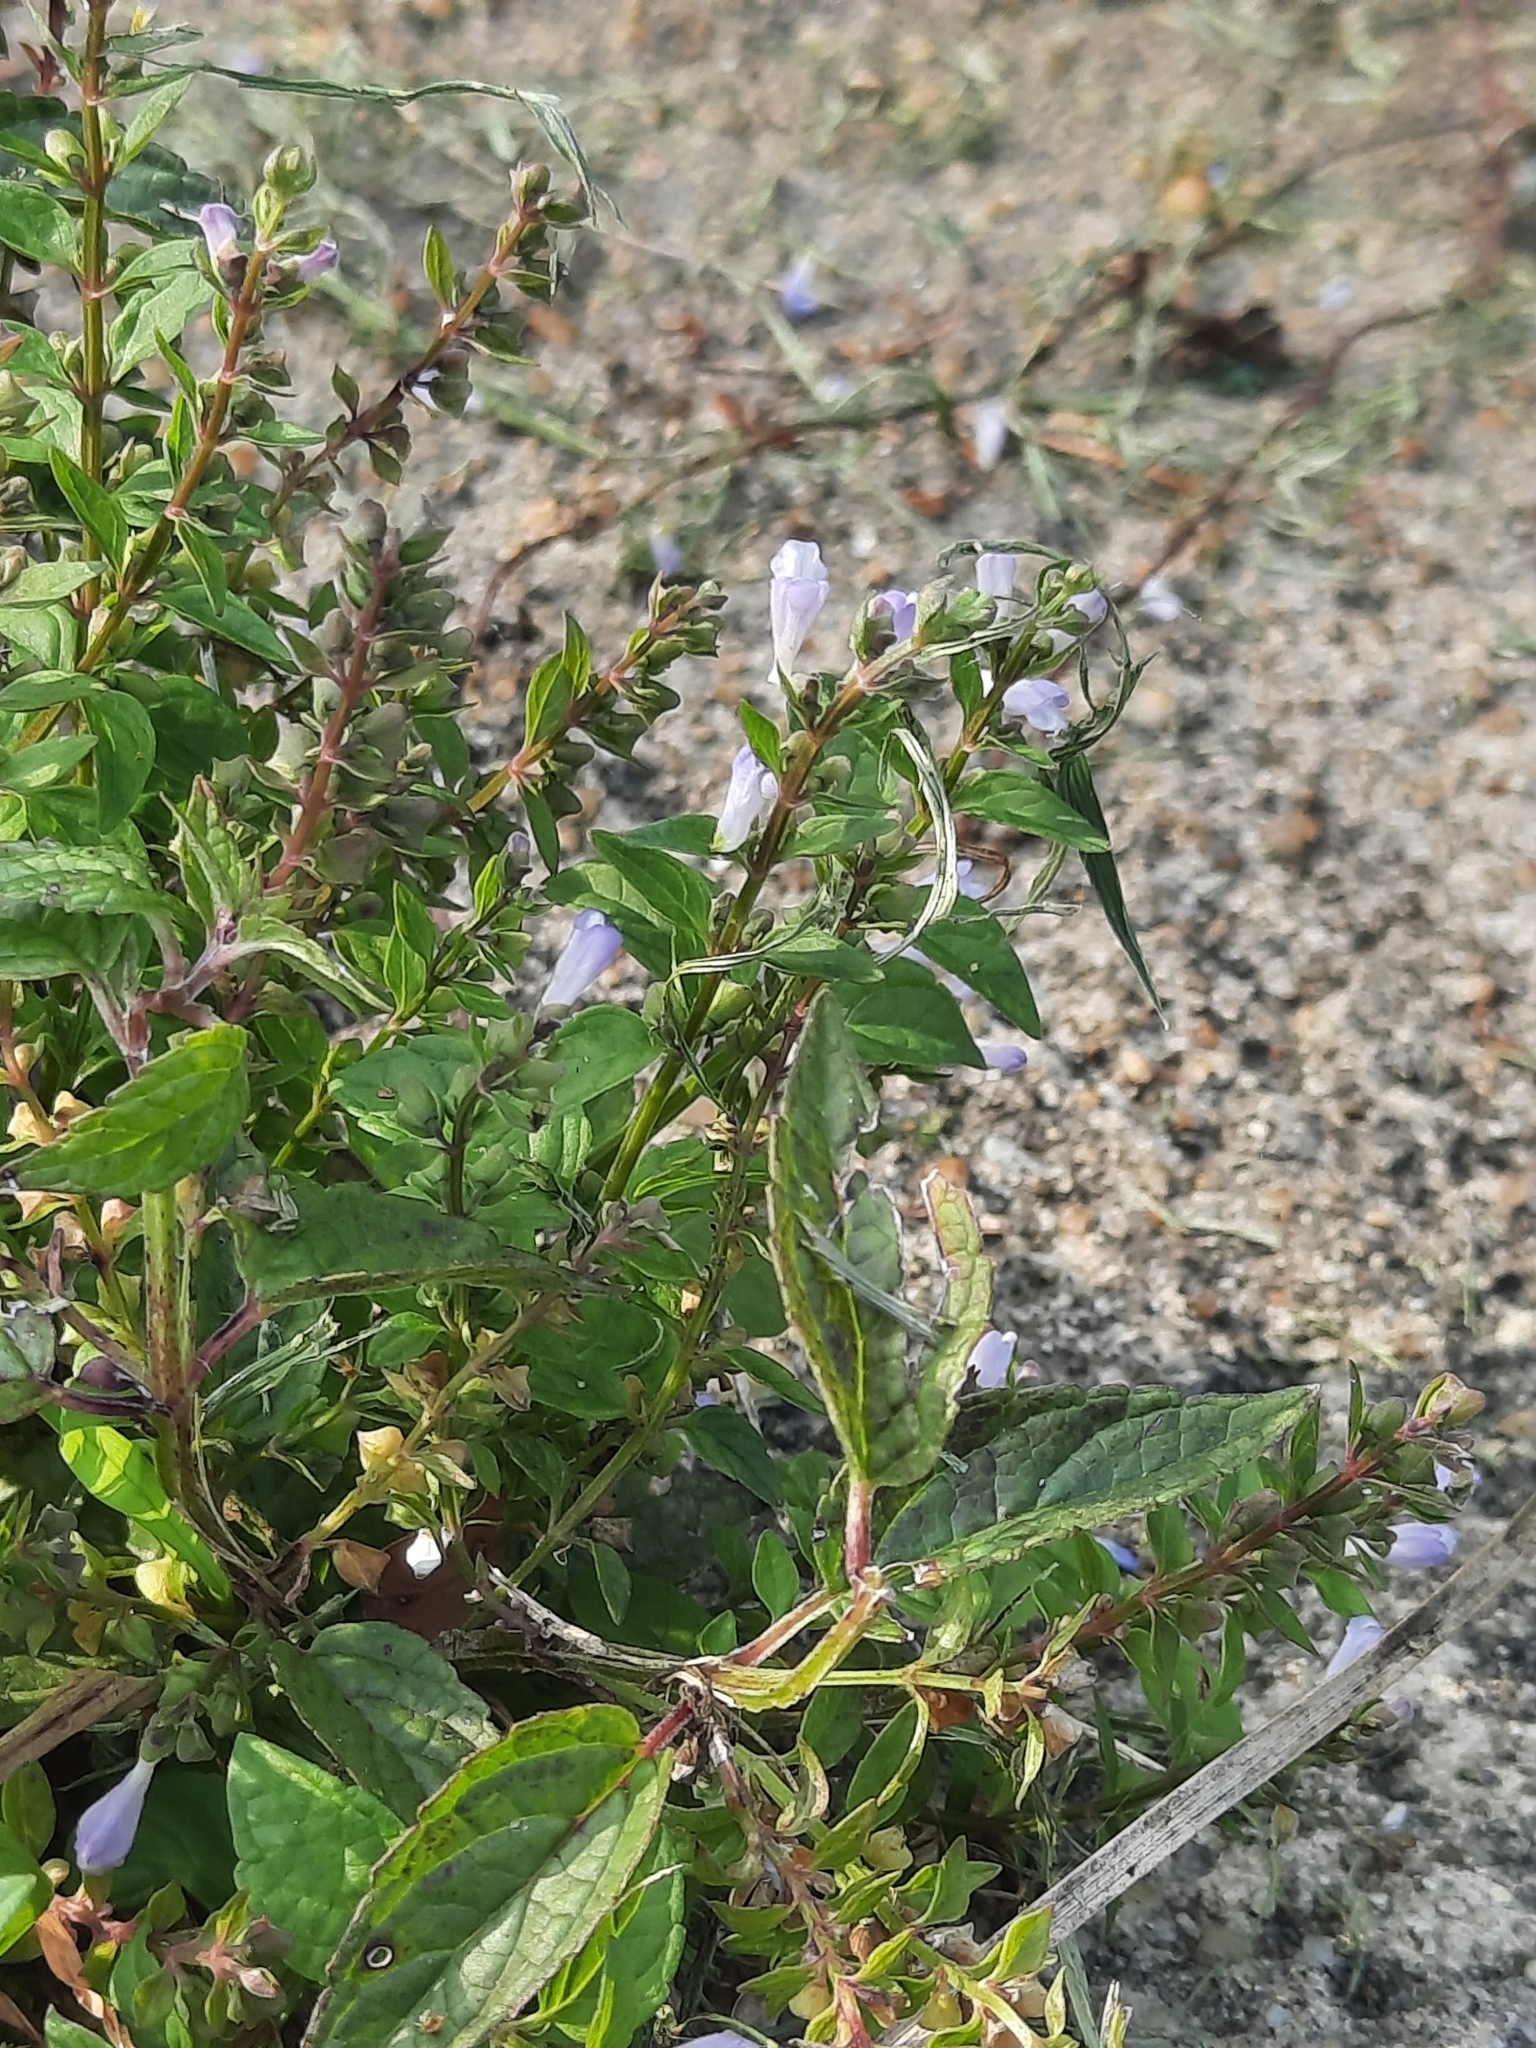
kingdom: Plantae
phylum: Tracheophyta
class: Magnoliopsida
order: Lamiales
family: Lamiaceae
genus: Scutellaria
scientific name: Scutellaria lateriflora
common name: Blue skullcap
